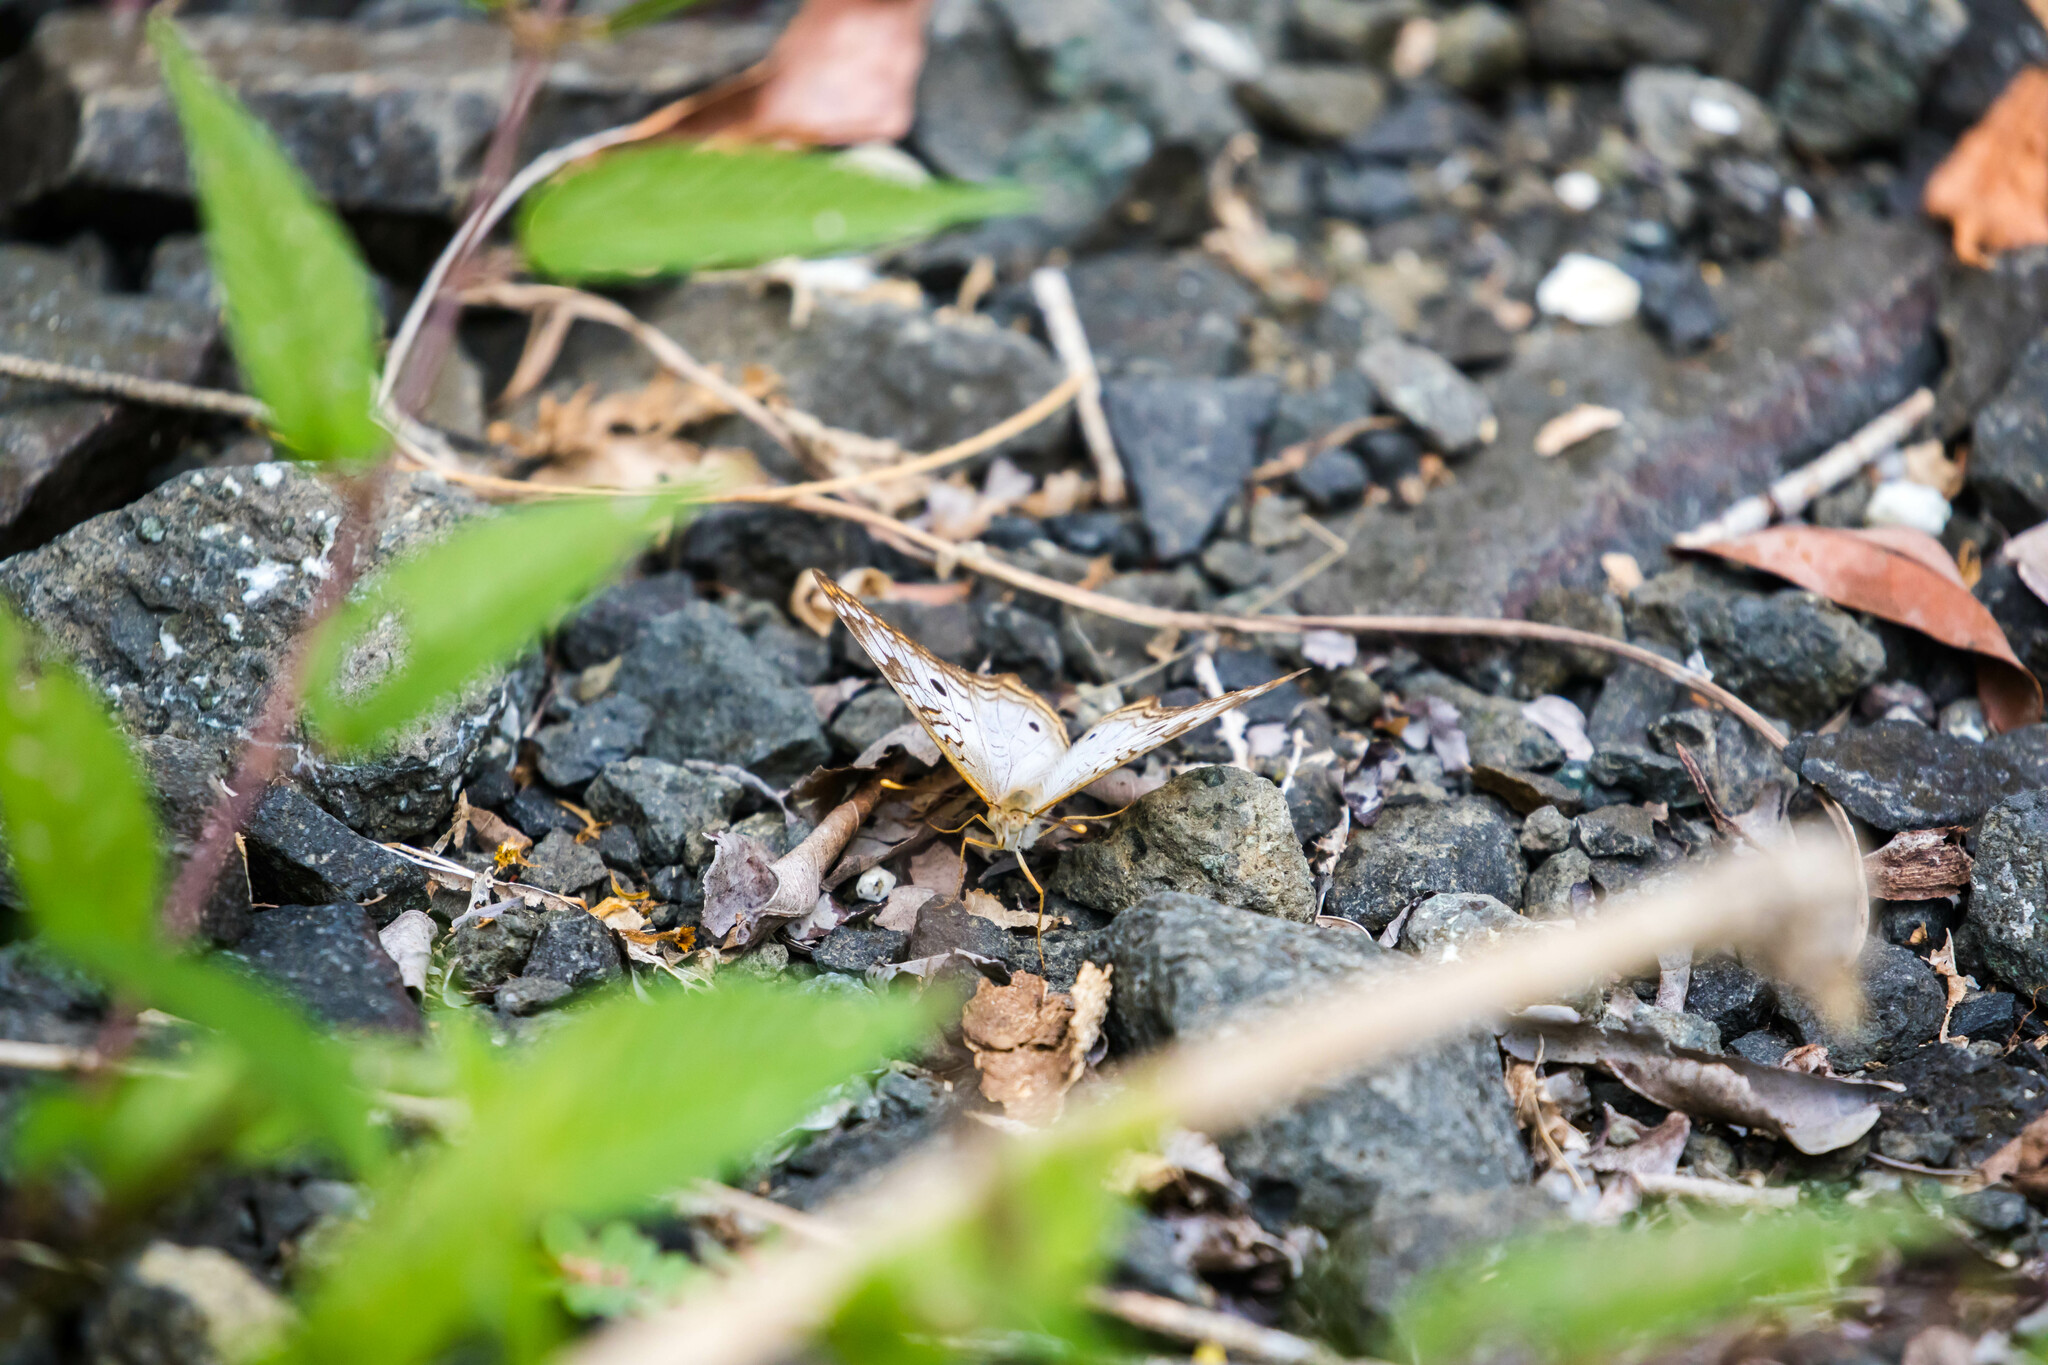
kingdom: Animalia
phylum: Arthropoda
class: Insecta
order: Lepidoptera
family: Nymphalidae
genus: Anartia
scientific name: Anartia jatrophae
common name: White peacock
